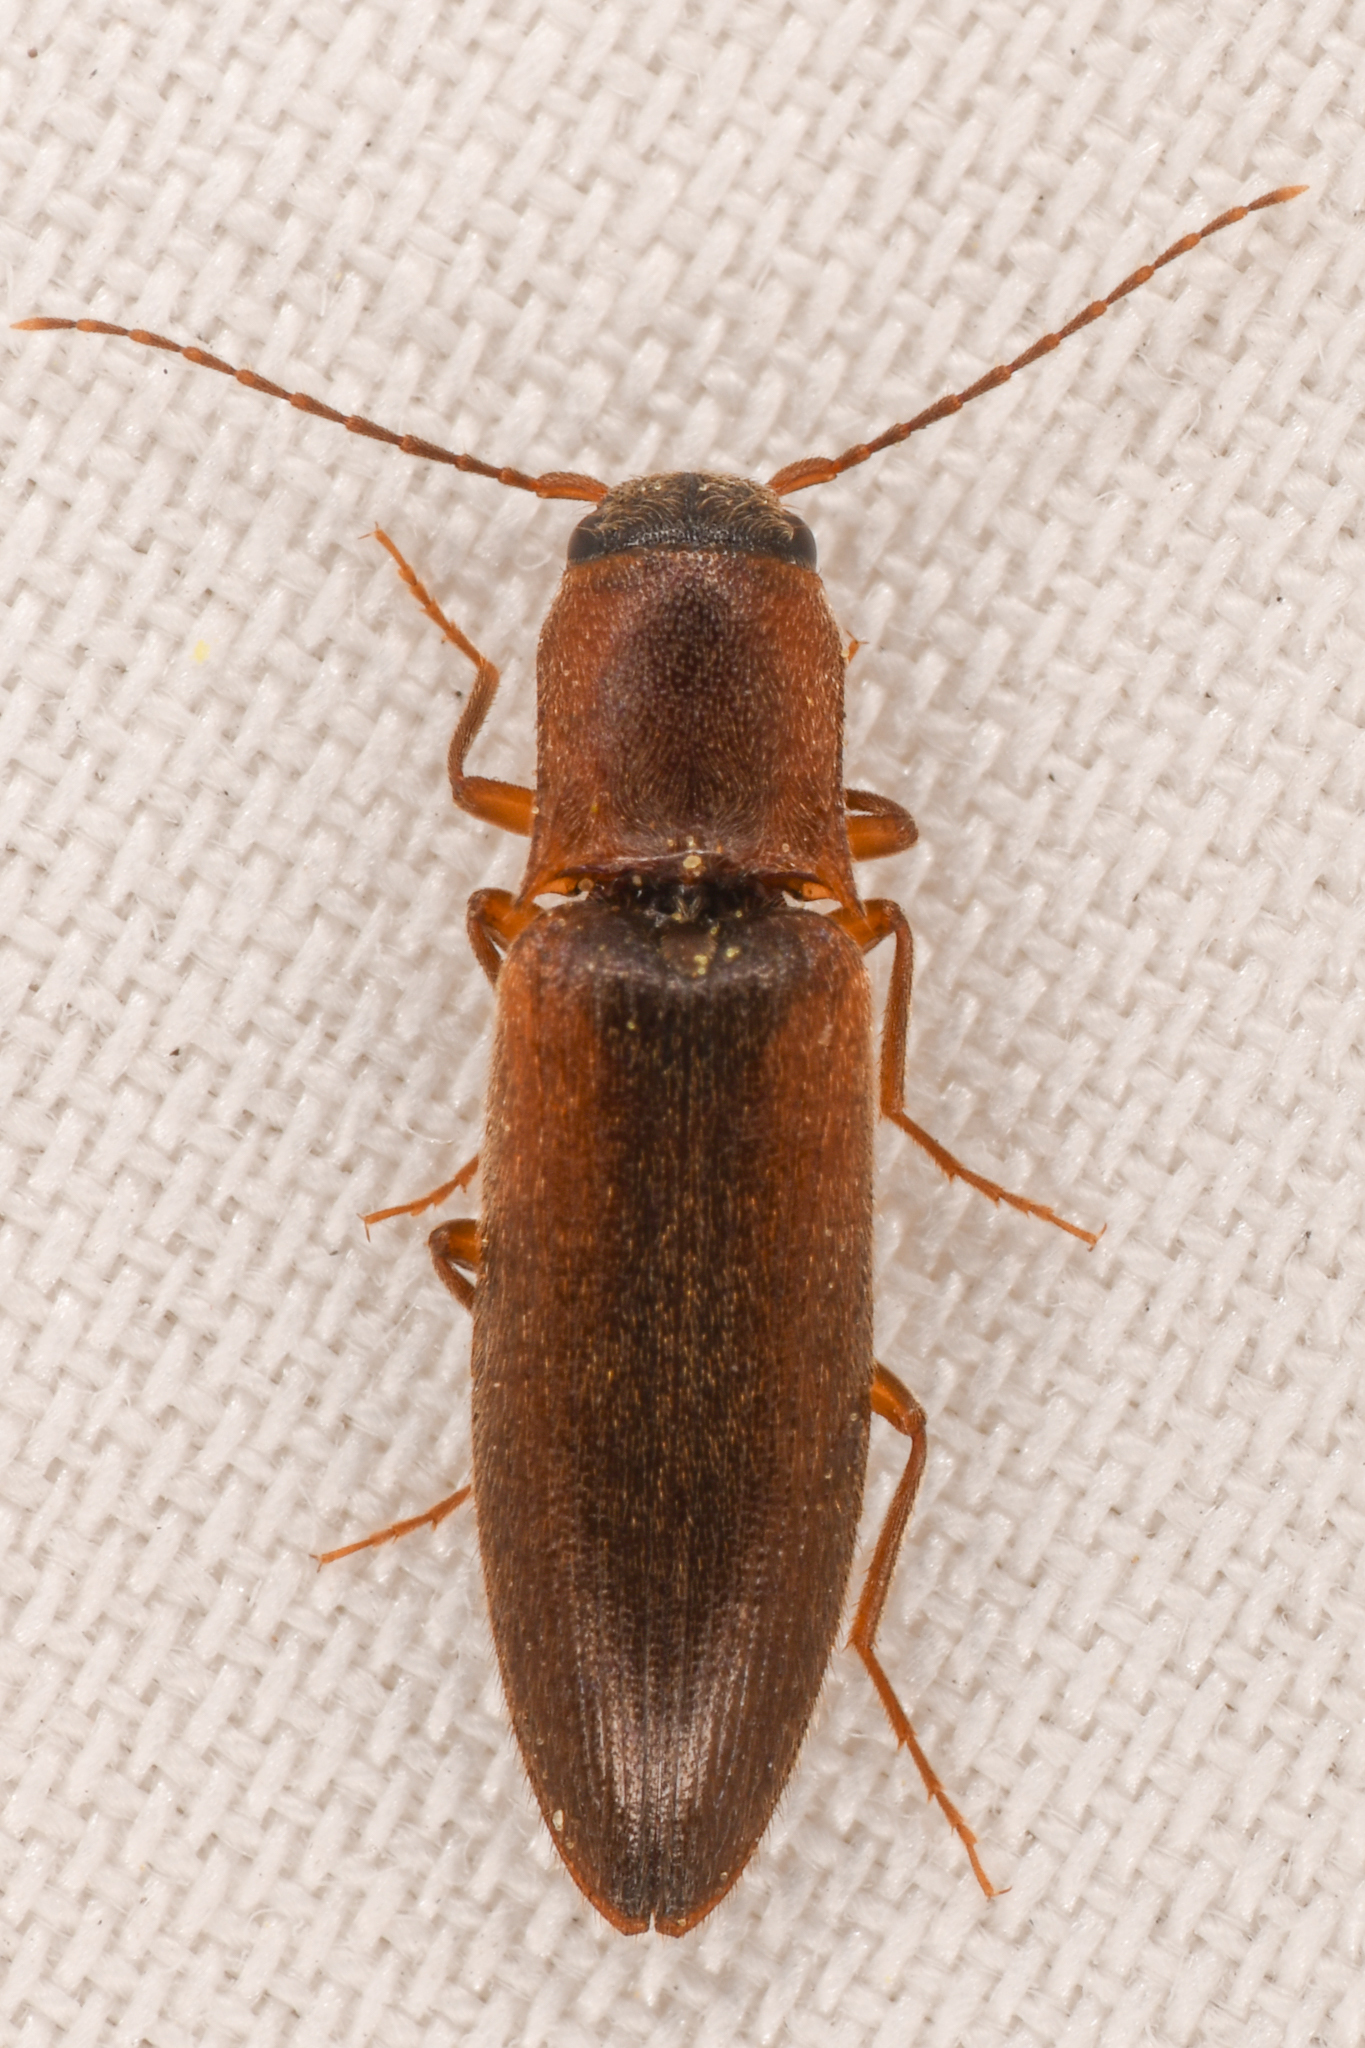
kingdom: Animalia
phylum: Arthropoda
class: Insecta
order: Coleoptera
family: Elateridae
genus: Dalopius
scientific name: Dalopius
